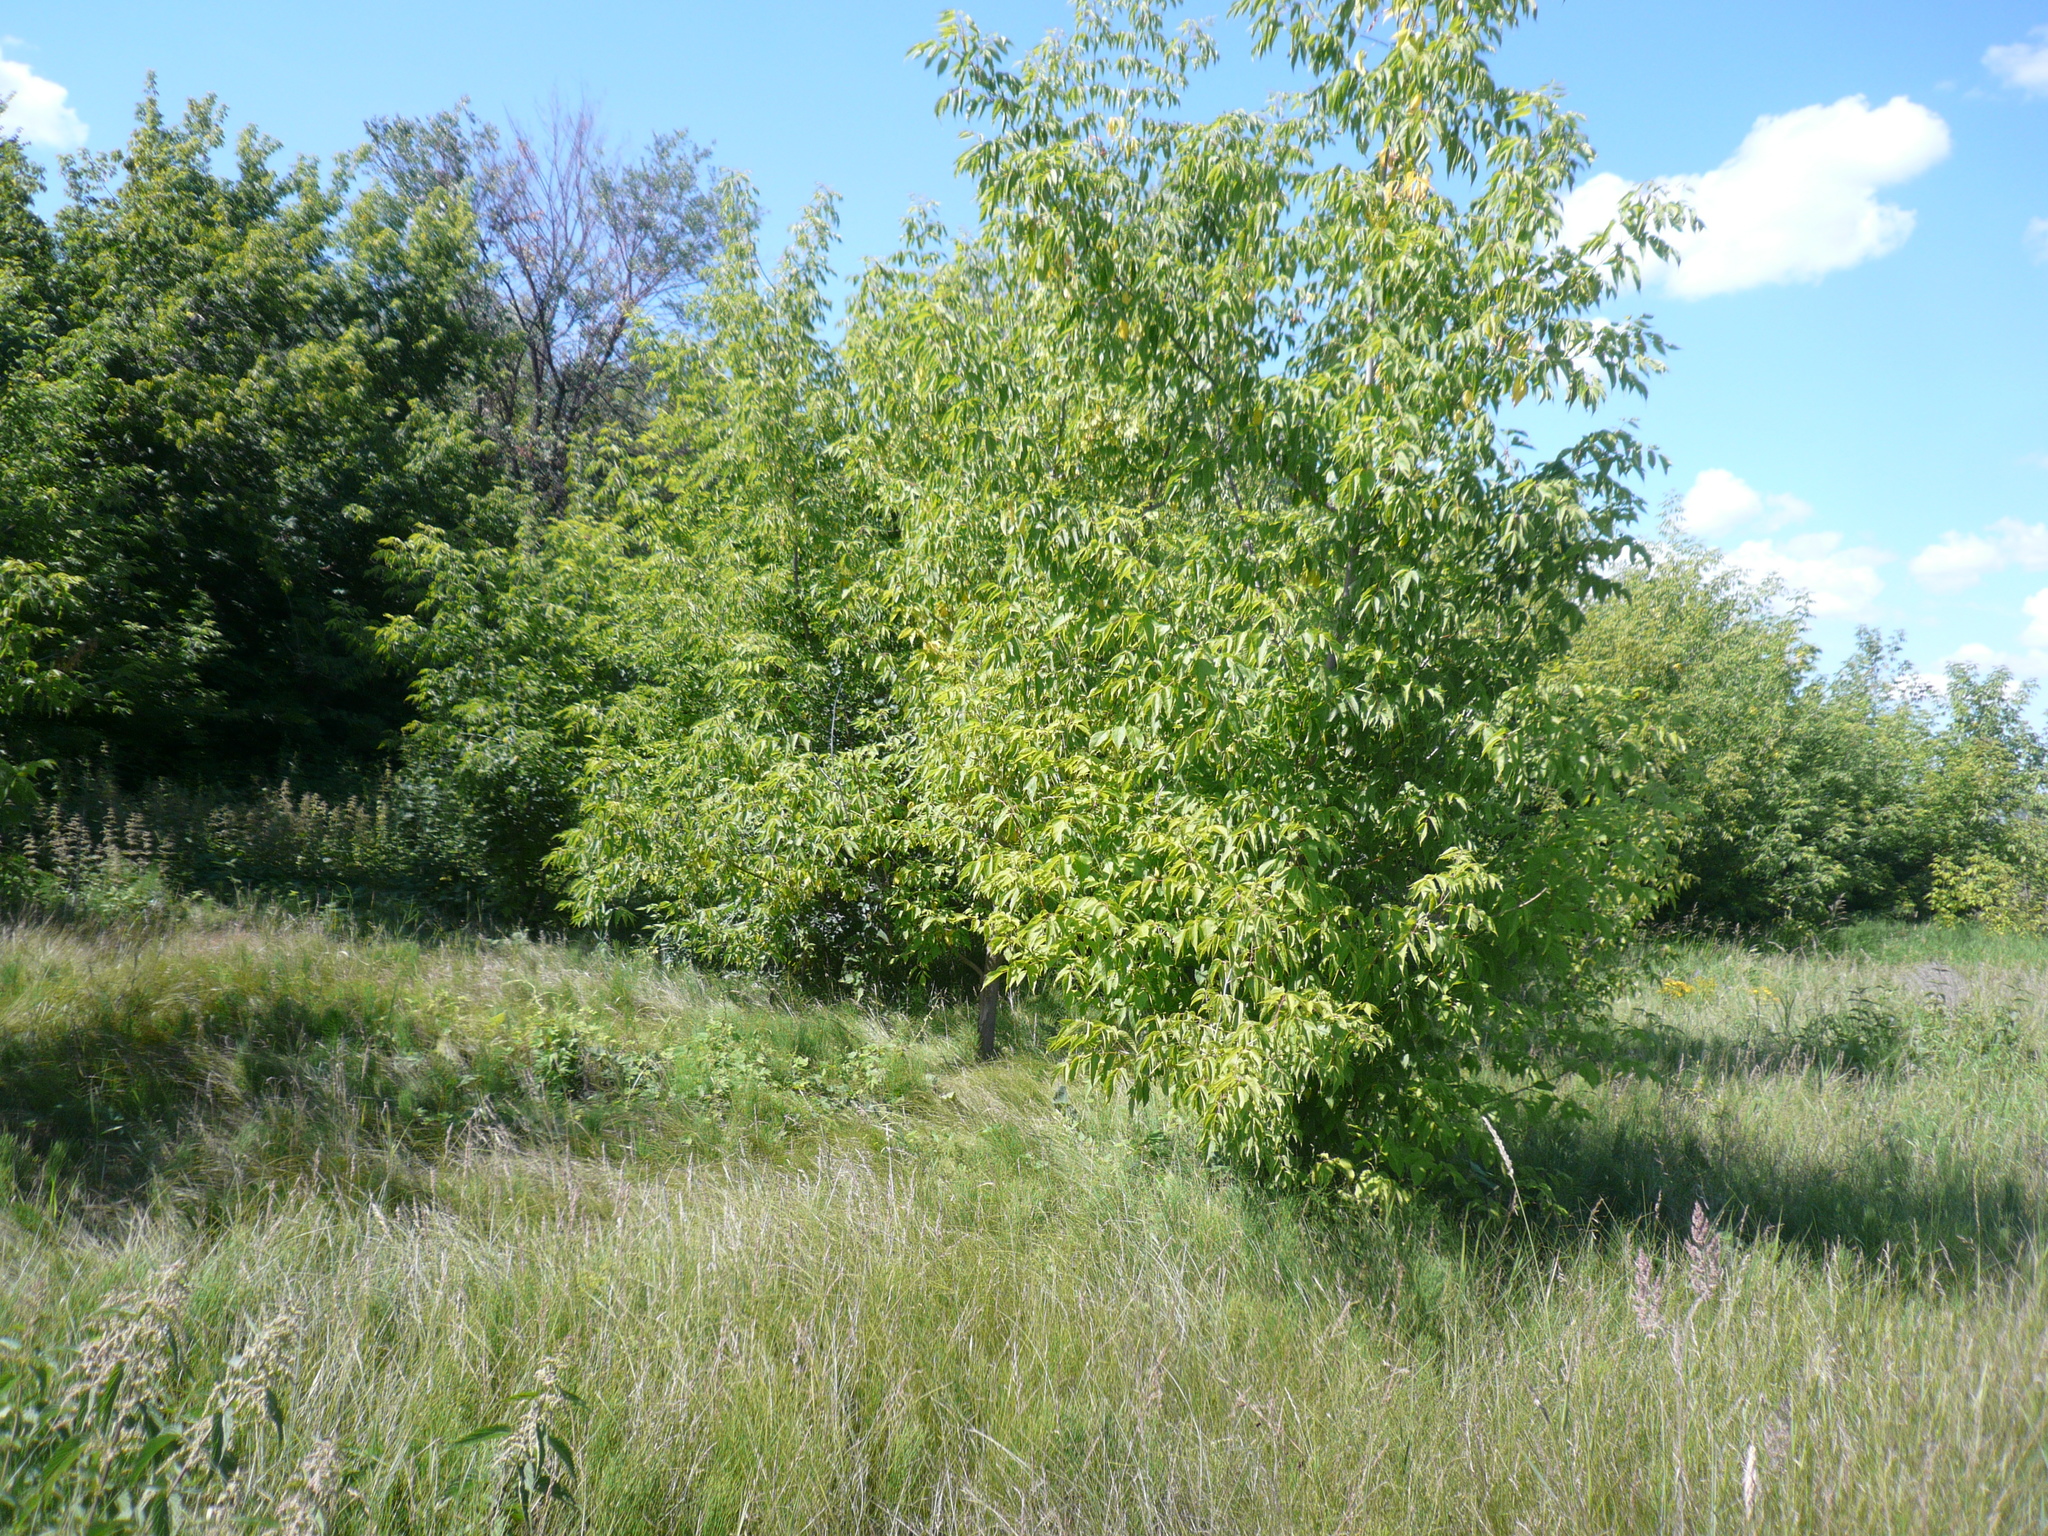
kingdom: Plantae
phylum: Tracheophyta
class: Magnoliopsida
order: Sapindales
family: Sapindaceae
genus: Acer
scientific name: Acer negundo
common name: Ashleaf maple
